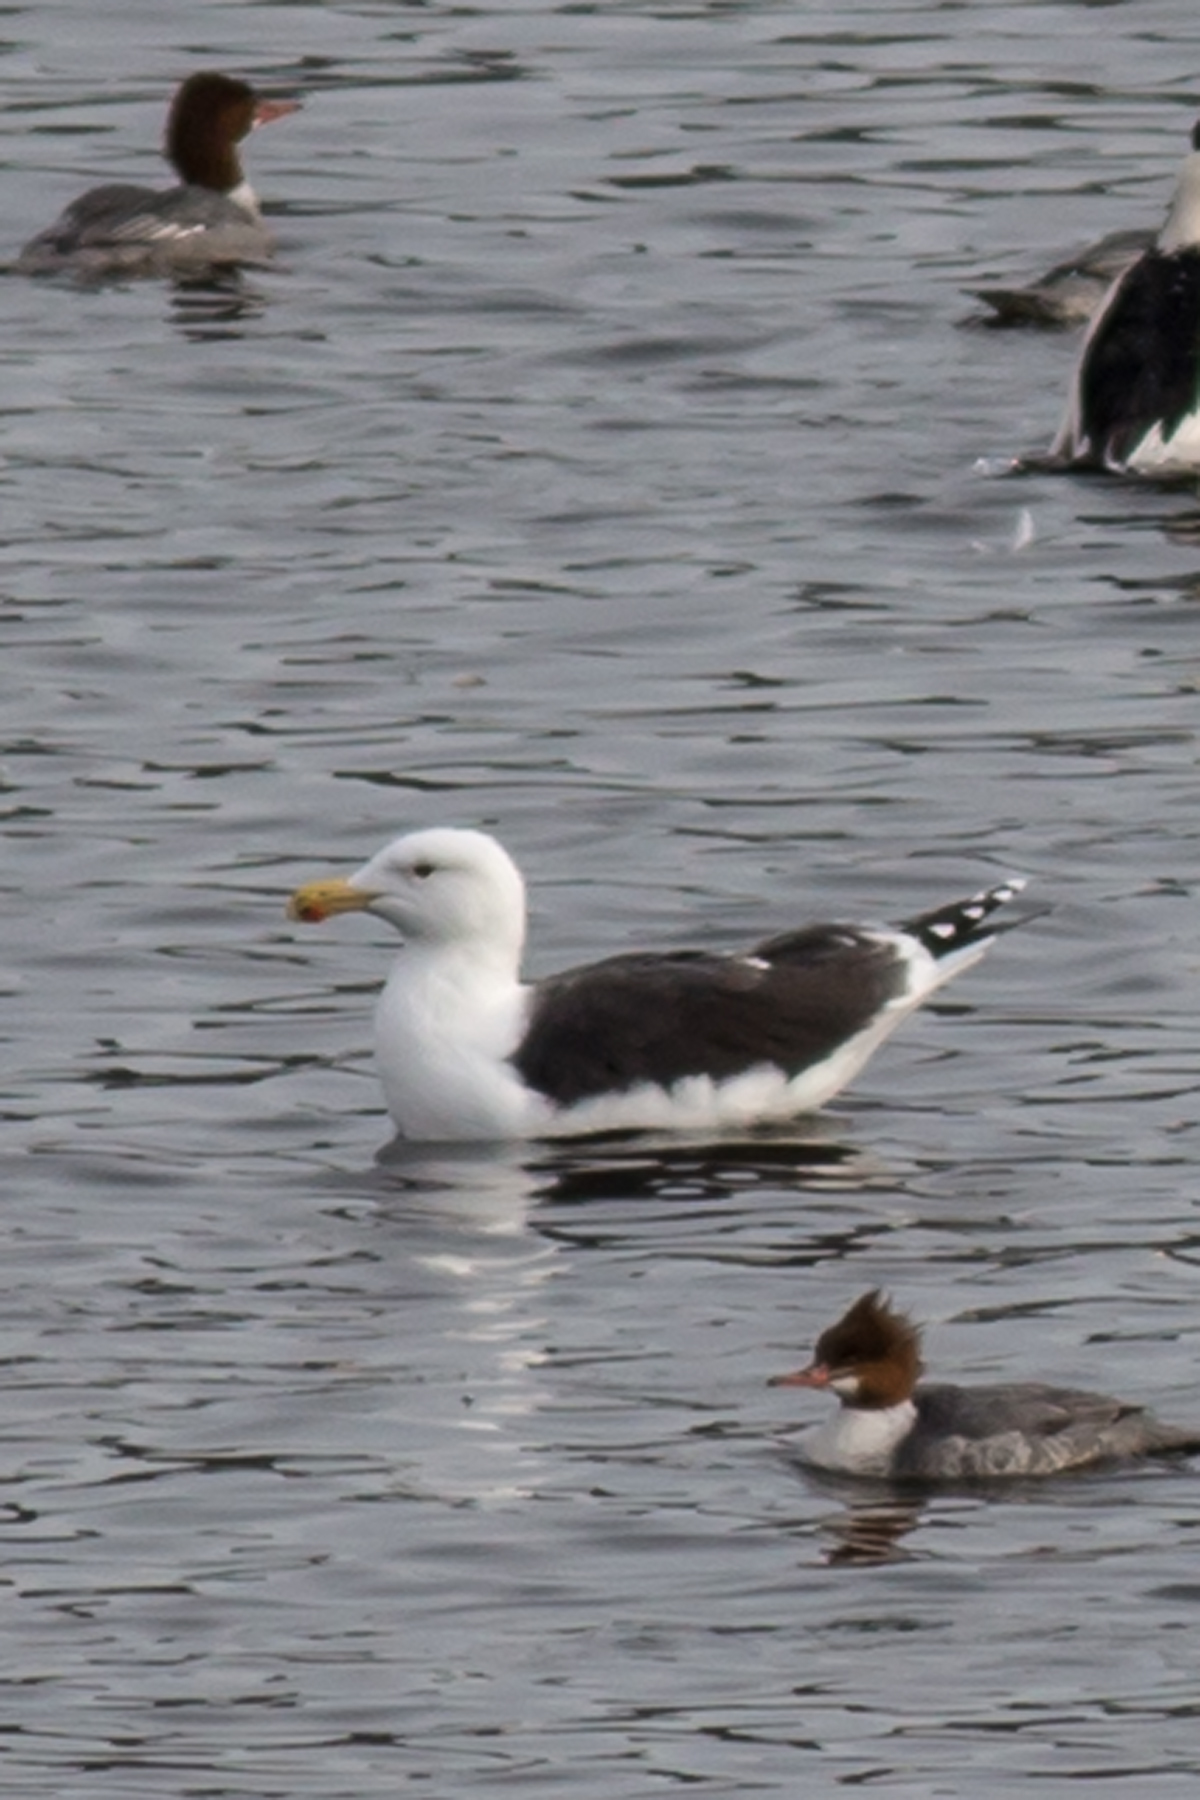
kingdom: Animalia
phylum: Chordata
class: Aves
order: Charadriiformes
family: Laridae
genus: Larus
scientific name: Larus marinus
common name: Great black-backed gull
